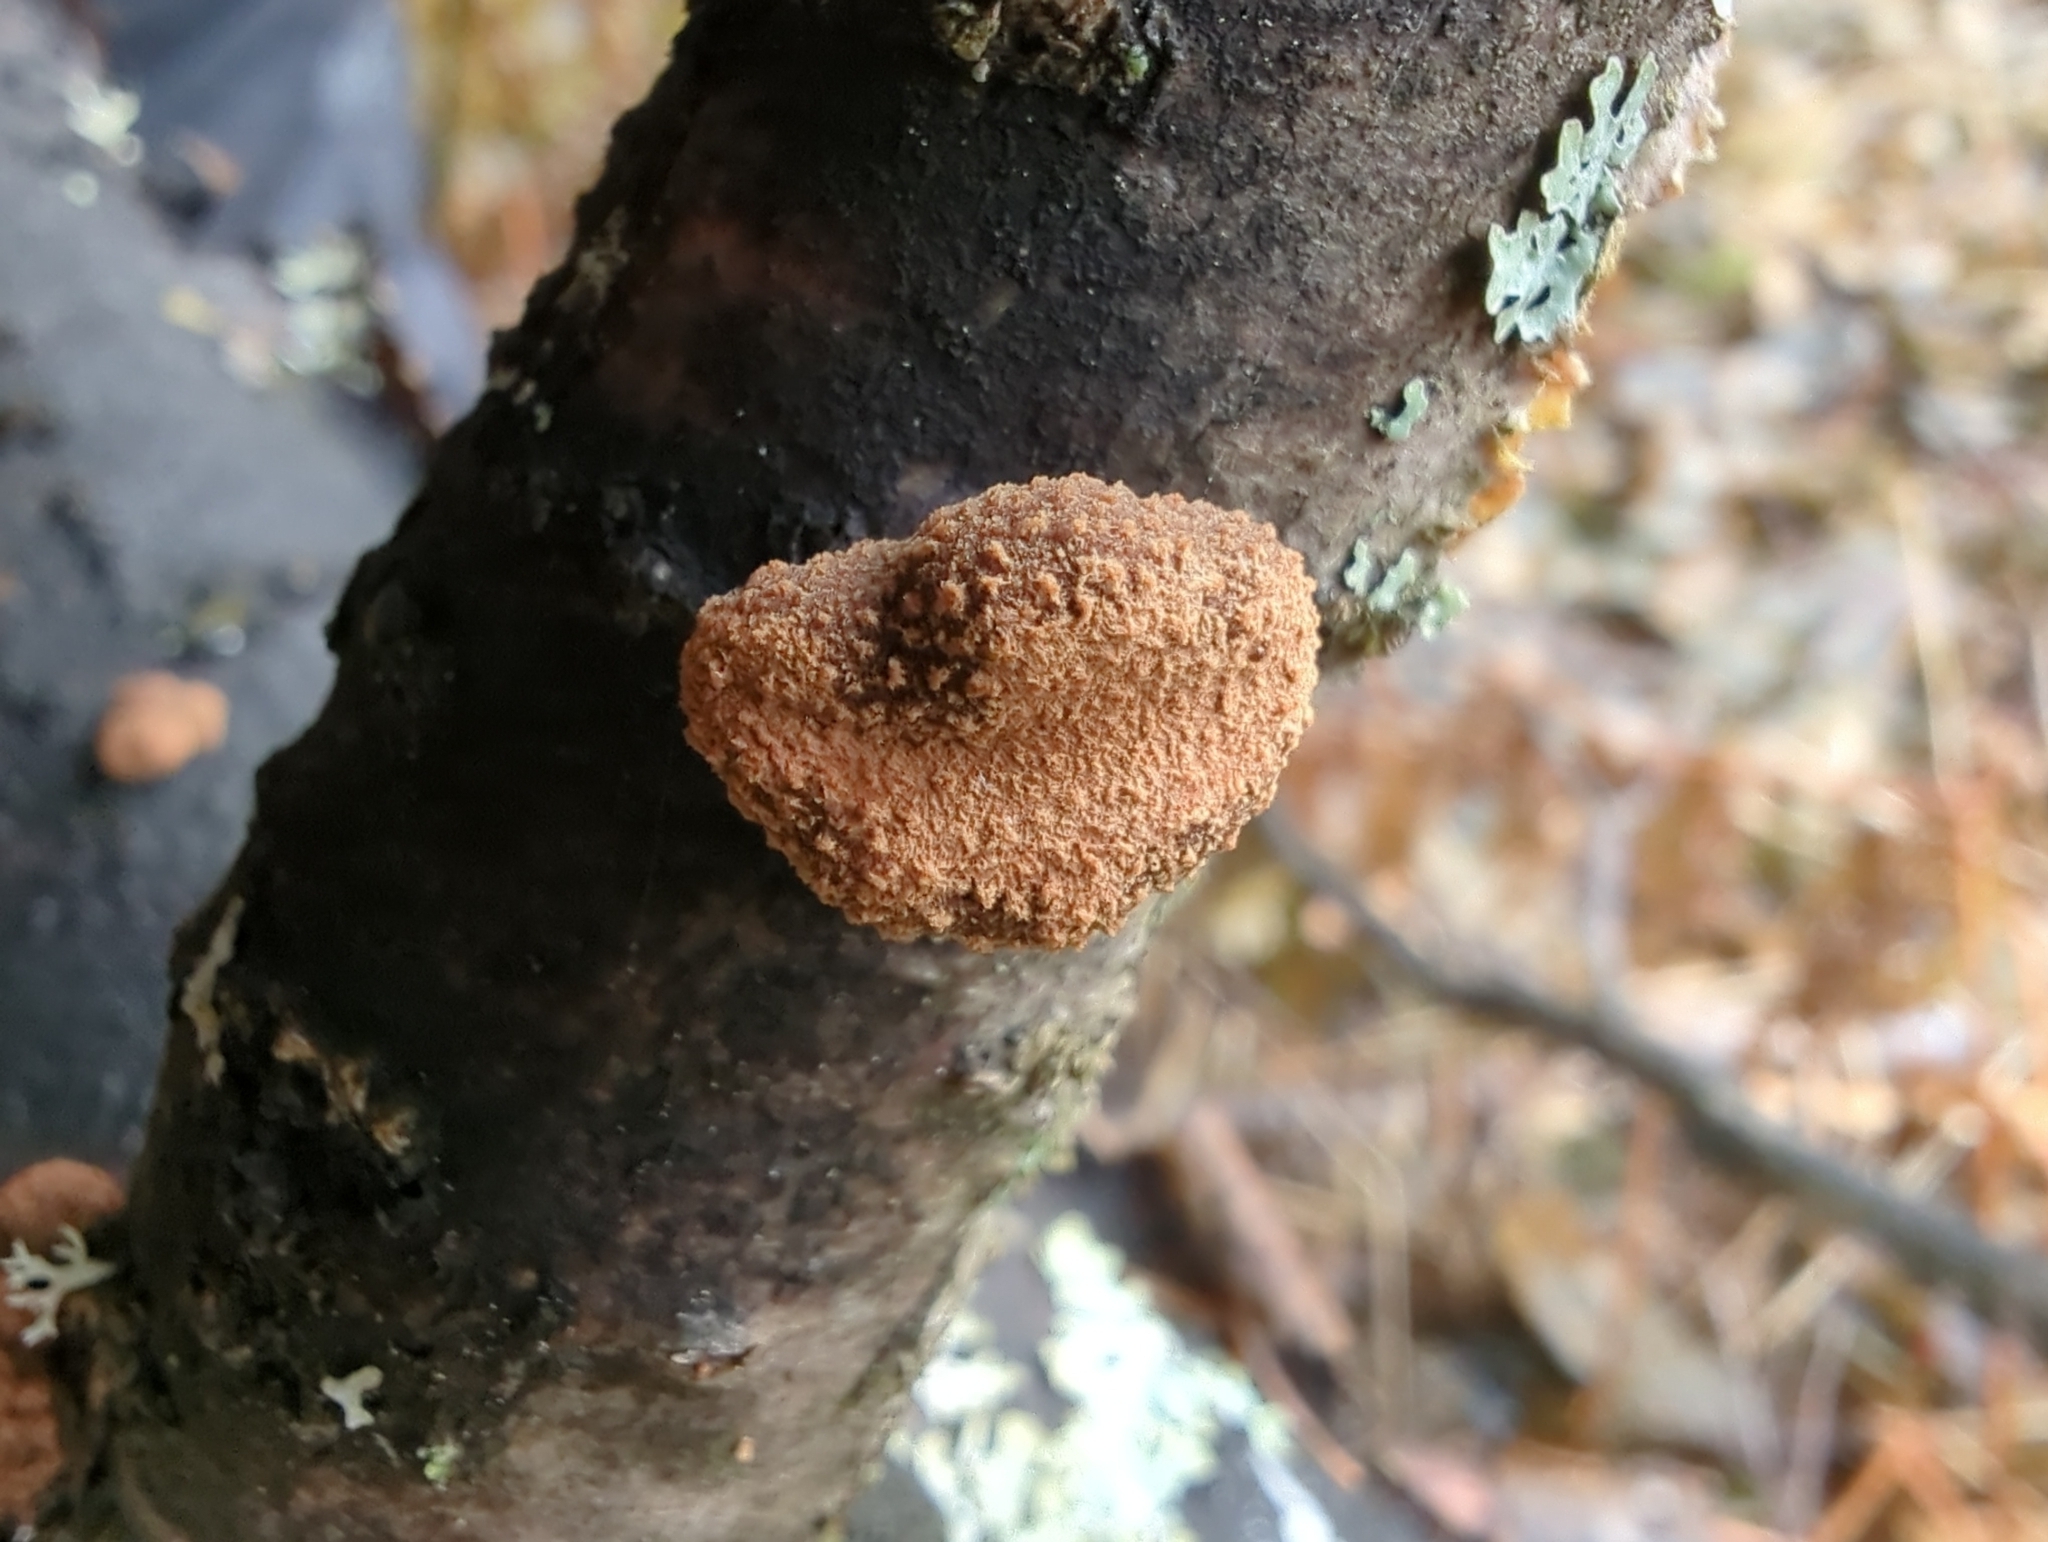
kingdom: Fungi
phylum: Ascomycota
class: Leotiomycetes
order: Helotiales
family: Cenangiaceae
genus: Encoelia
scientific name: Encoelia furfuracea
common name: Spring hazelcup
